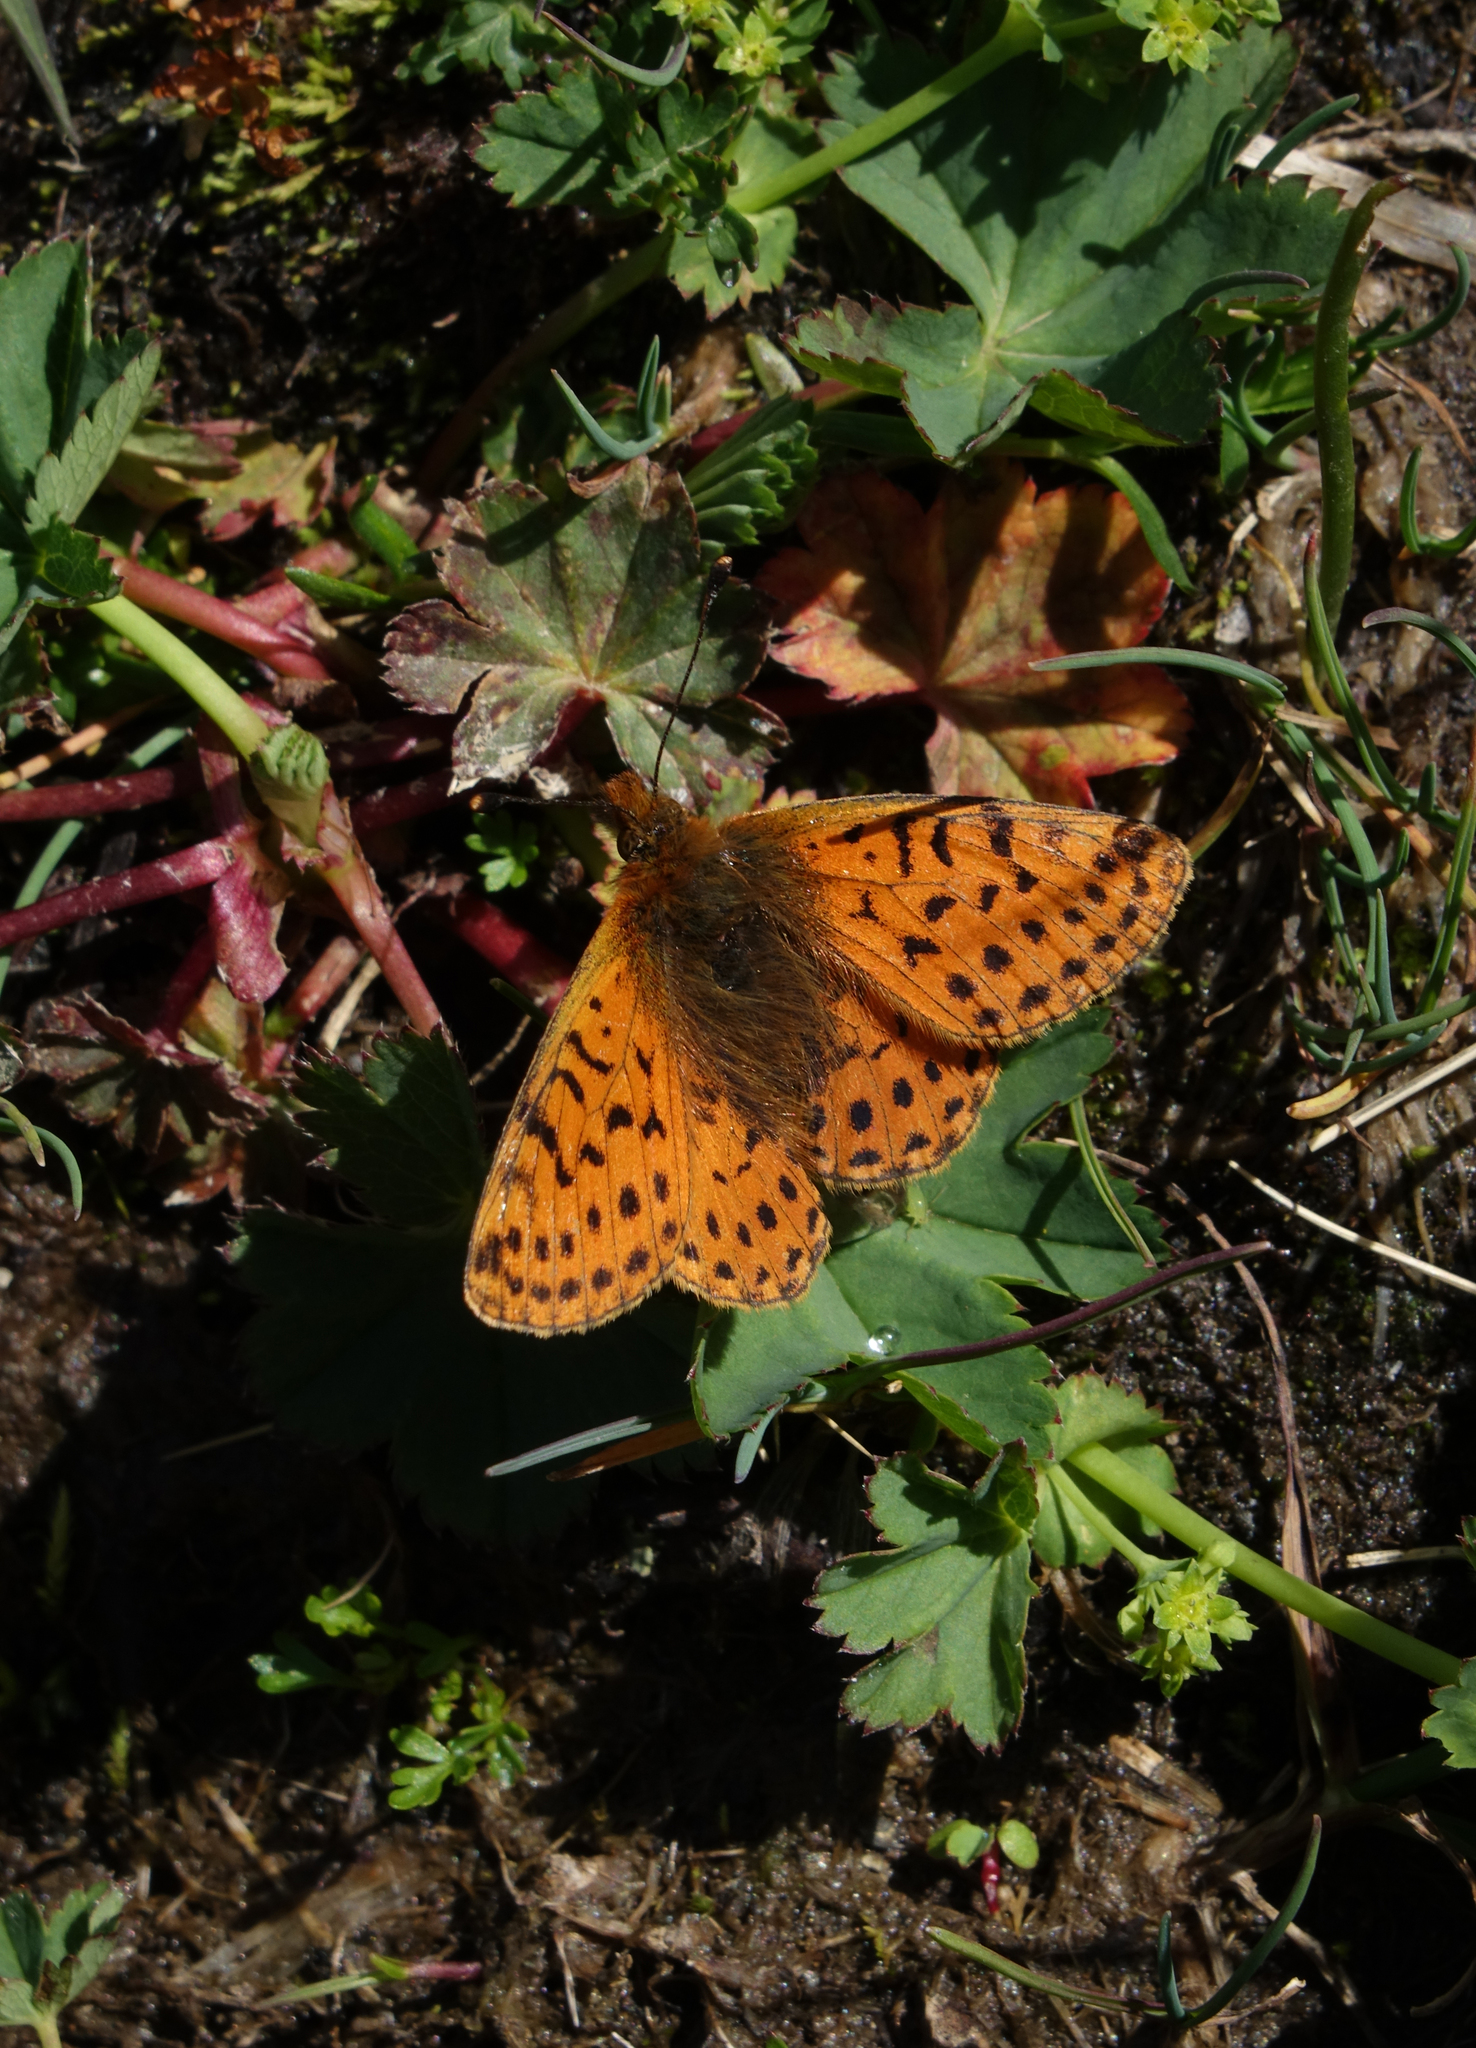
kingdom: Animalia
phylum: Arthropoda
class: Insecta
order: Lepidoptera
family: Nymphalidae
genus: Boloria
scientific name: Boloria caucasica
